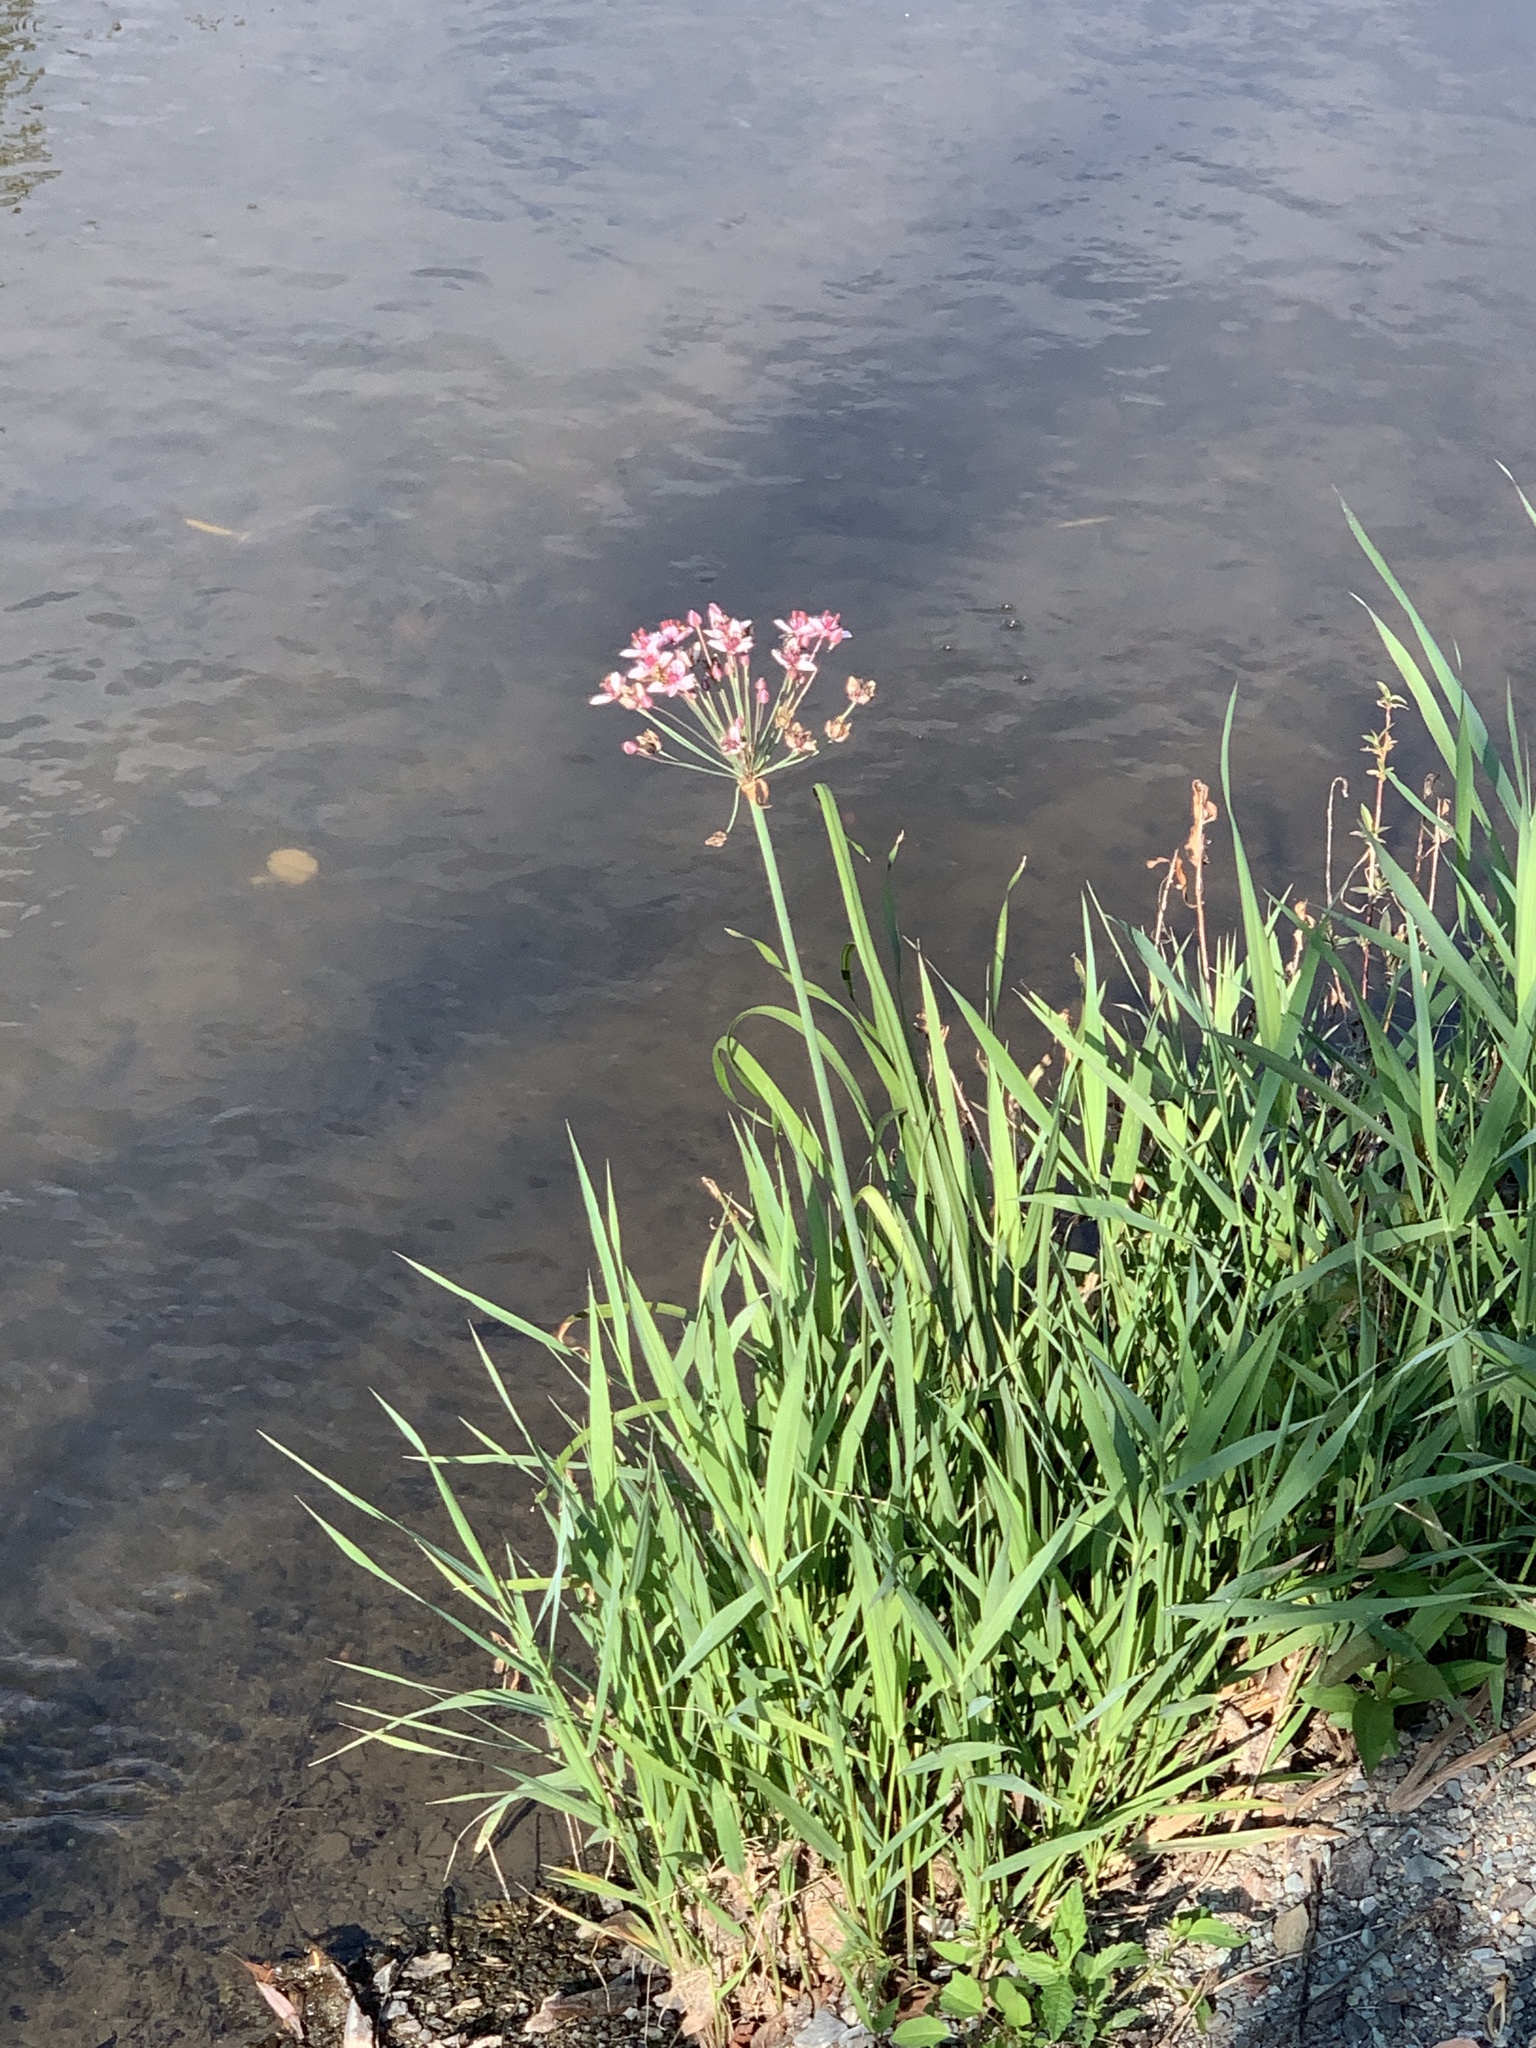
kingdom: Plantae
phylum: Tracheophyta
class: Liliopsida
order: Alismatales
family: Butomaceae
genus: Butomus
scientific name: Butomus umbellatus
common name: Flowering-rush
